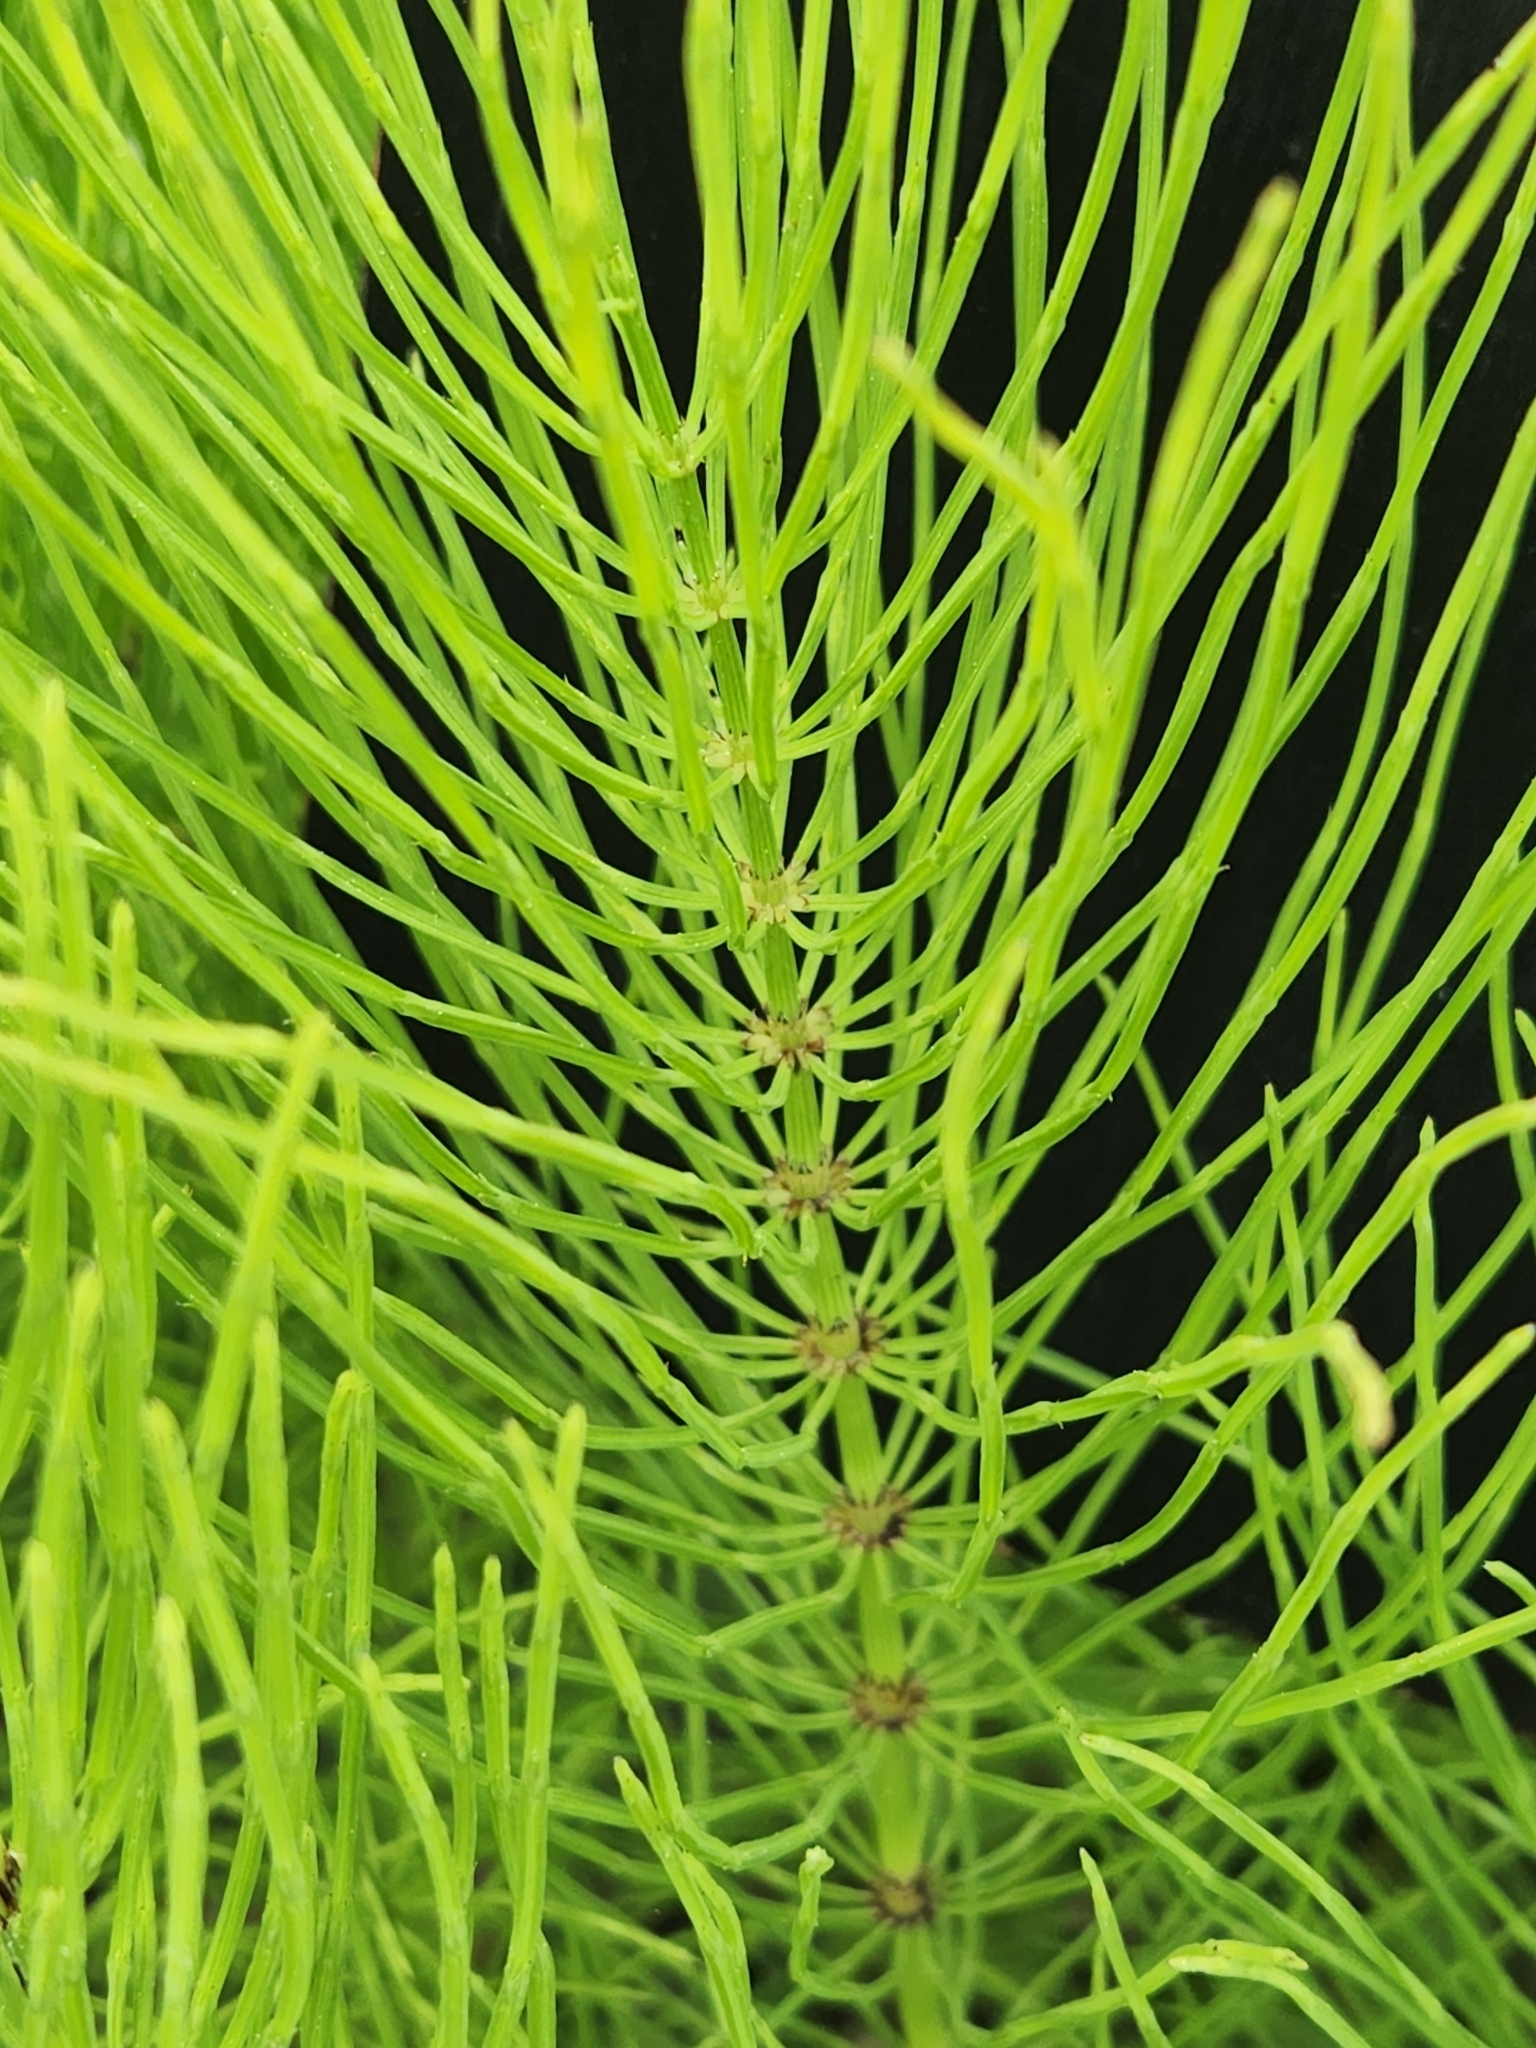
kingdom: Plantae
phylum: Tracheophyta
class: Polypodiopsida
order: Equisetales
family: Equisetaceae
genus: Equisetum
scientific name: Equisetum arvense
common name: Field horsetail
